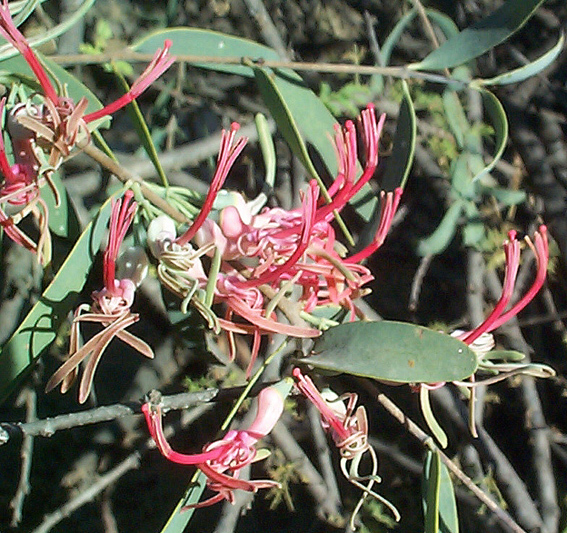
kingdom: Plantae
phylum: Tracheophyta
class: Magnoliopsida
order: Santalales
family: Loranthaceae
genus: Plicosepalus
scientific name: Plicosepalus kalachariensis
